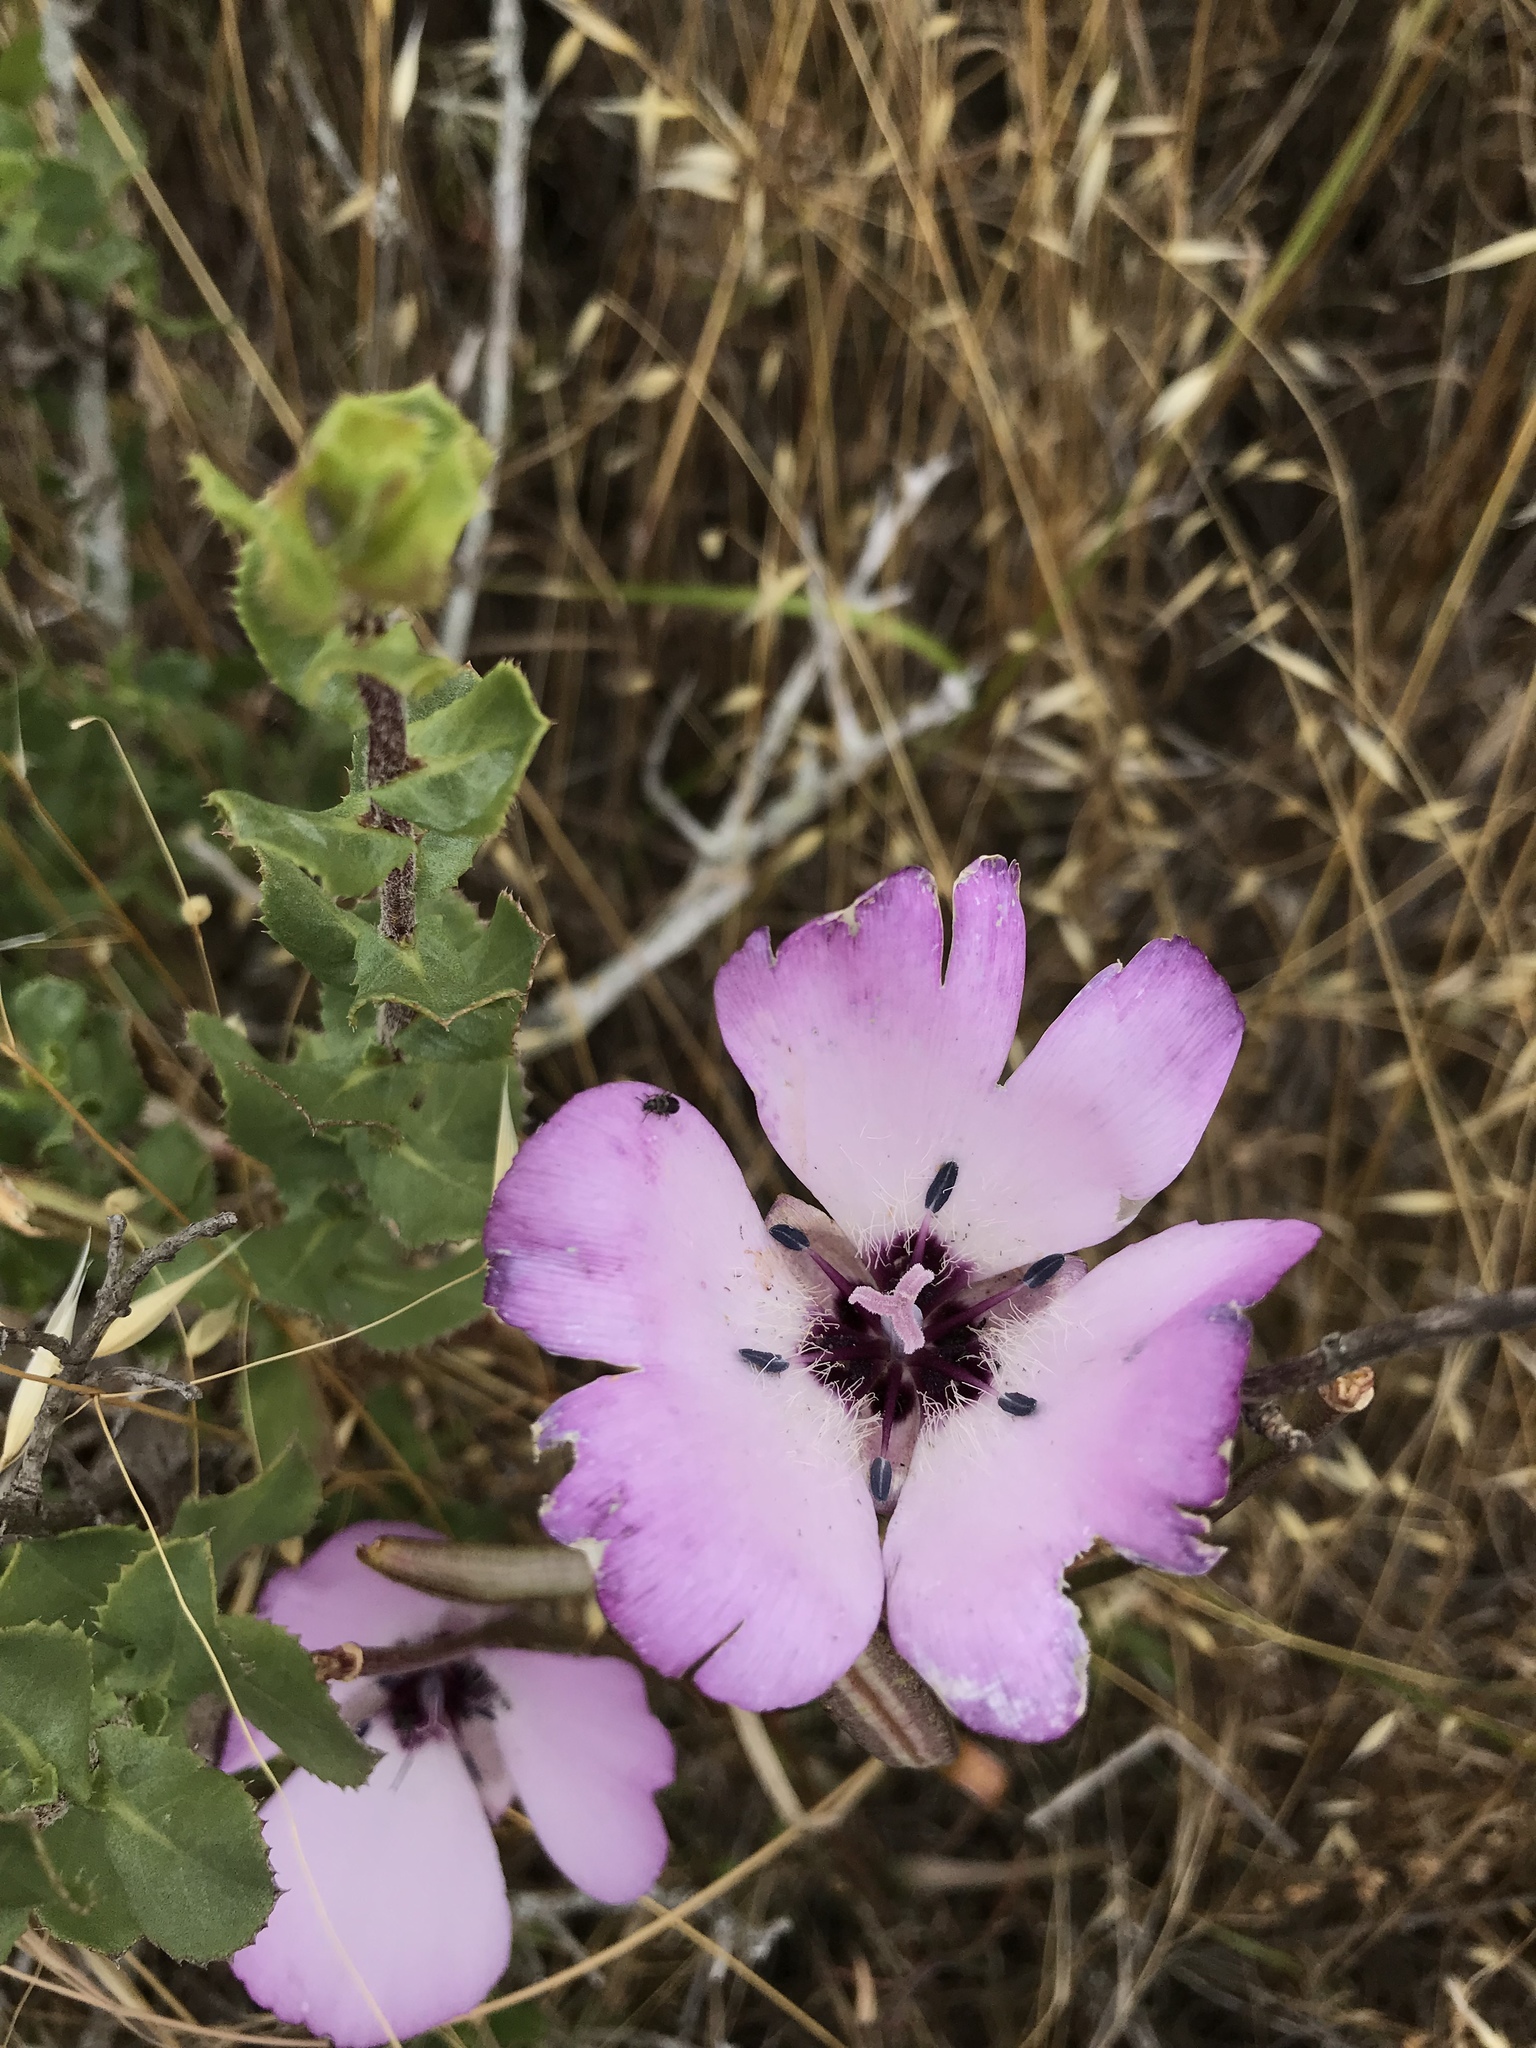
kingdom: Plantae
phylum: Tracheophyta
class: Liliopsida
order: Liliales
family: Liliaceae
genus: Calochortus
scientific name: Calochortus splendens
